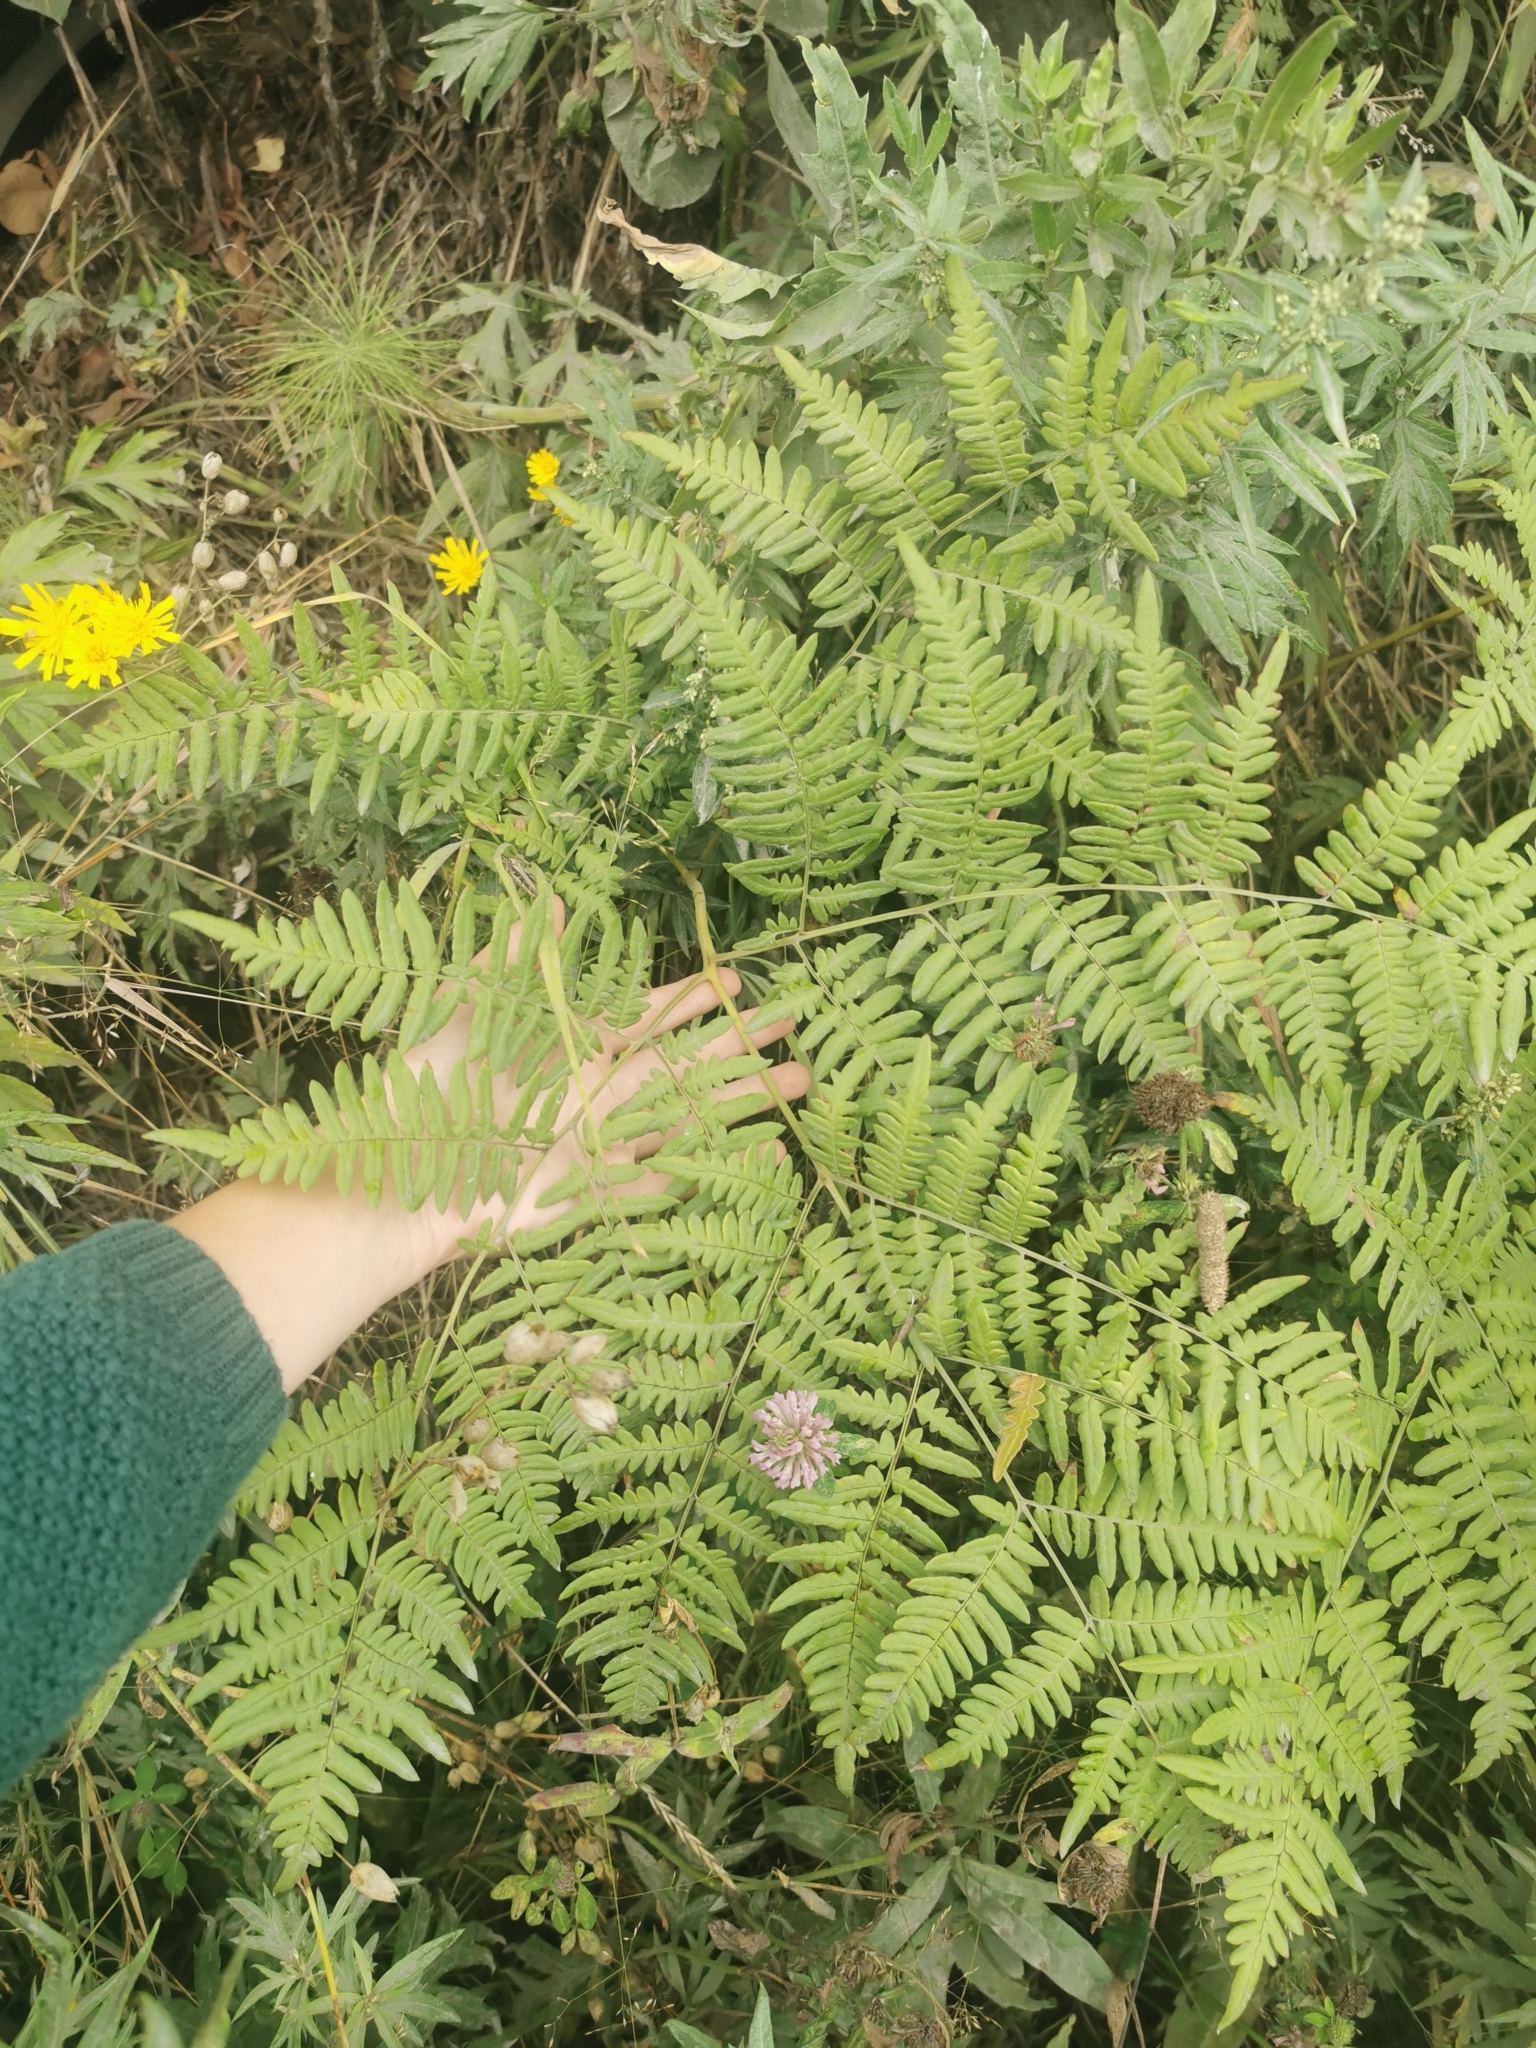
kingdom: Plantae
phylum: Tracheophyta
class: Polypodiopsida
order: Polypodiales
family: Dennstaedtiaceae
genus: Pteridium
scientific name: Pteridium aquilinum
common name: Bracken
